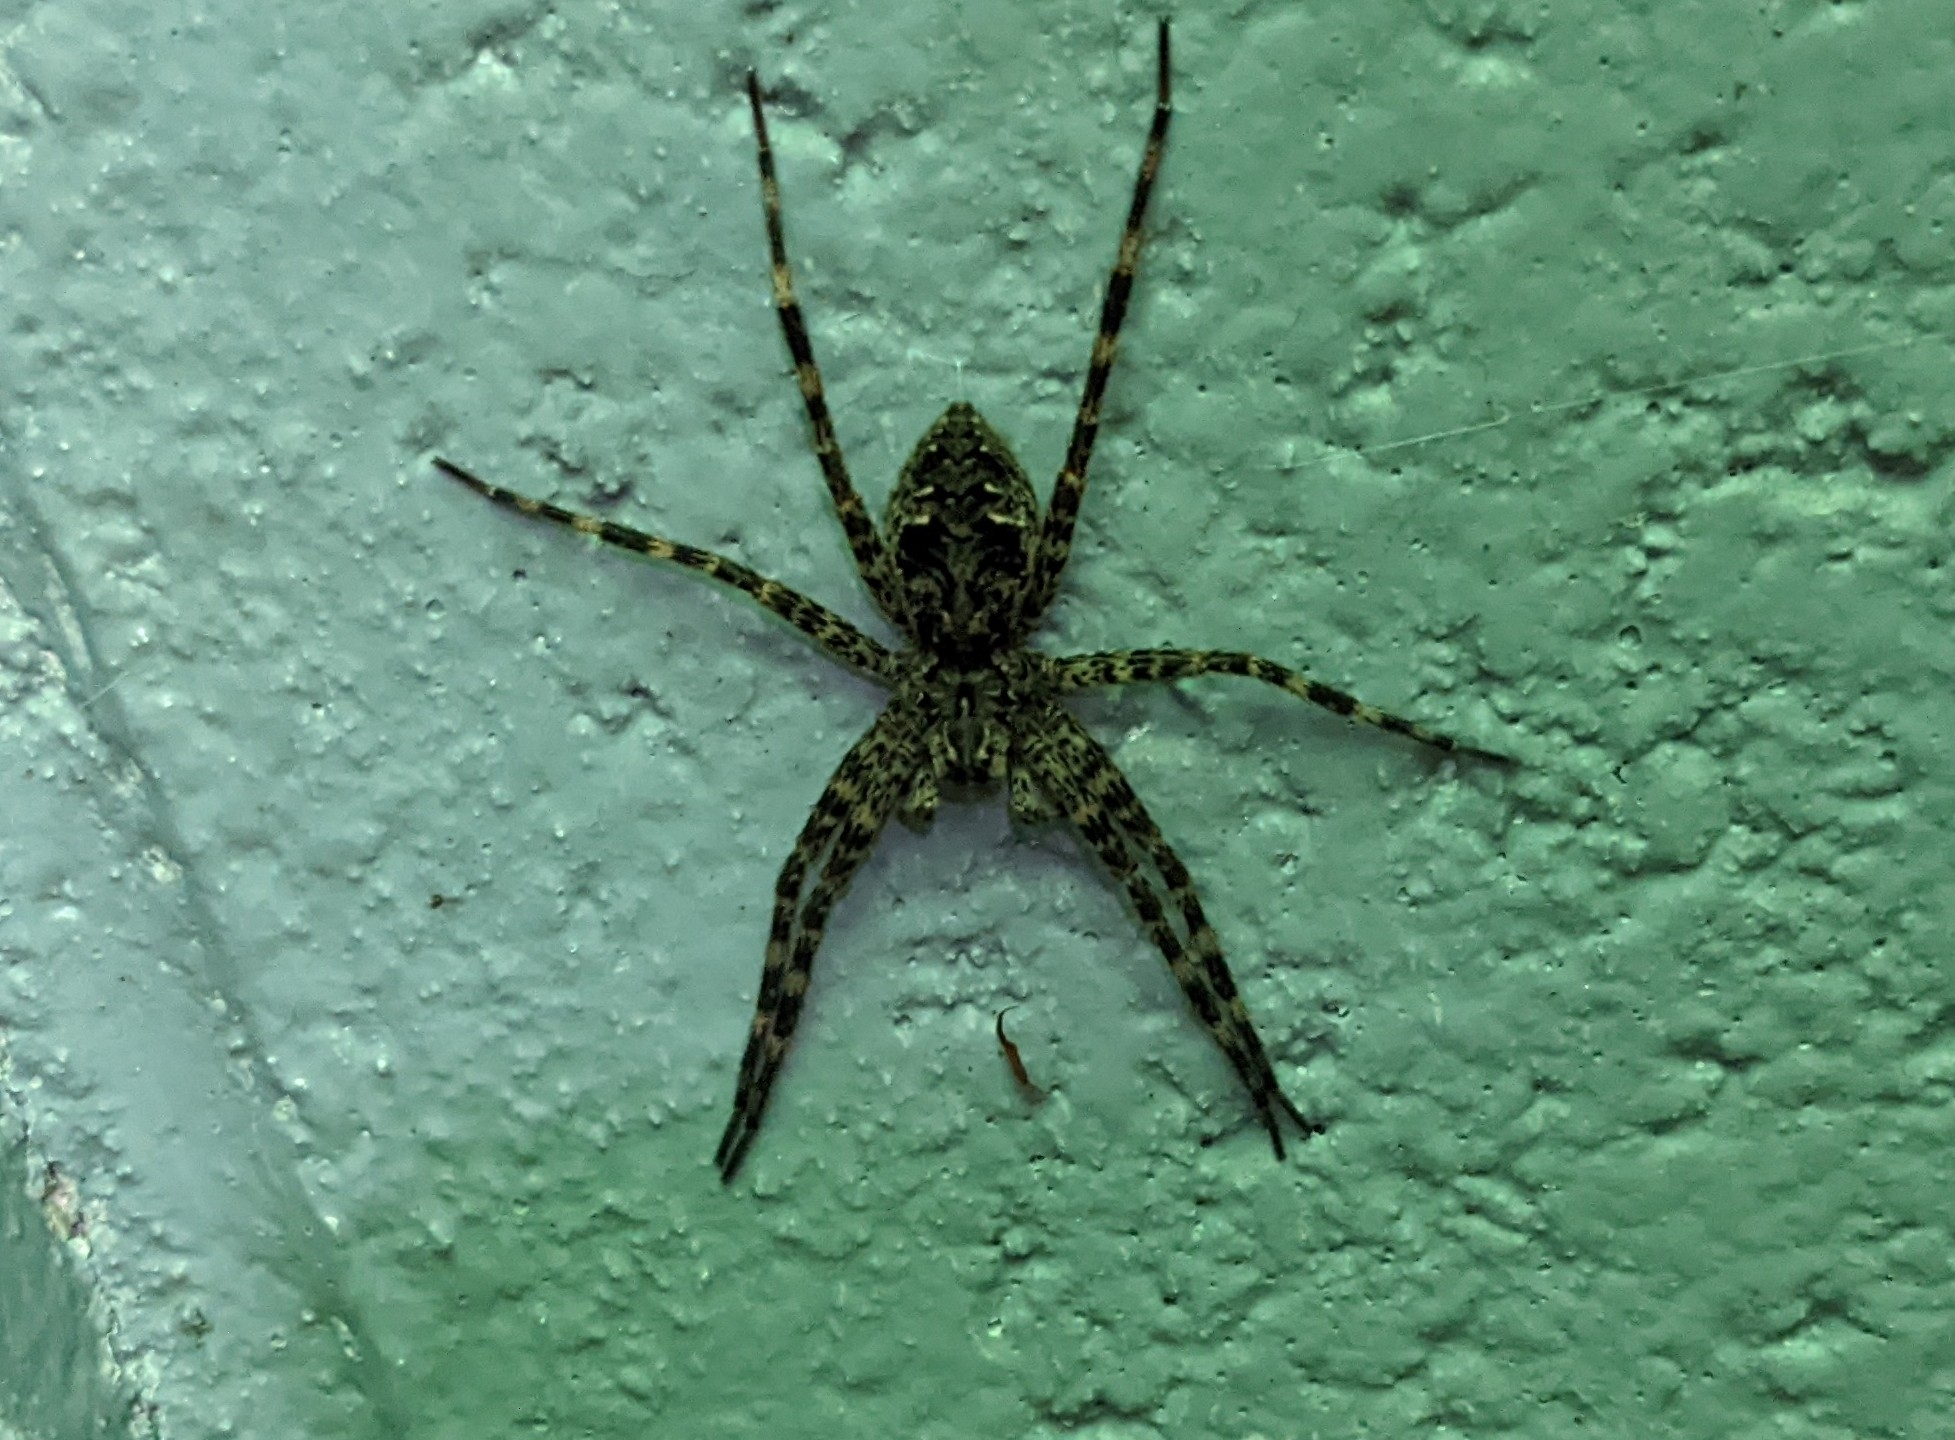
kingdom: Animalia
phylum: Arthropoda
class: Arachnida
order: Araneae
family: Pisauridae
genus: Dolomedes
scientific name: Dolomedes tenebrosus
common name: Dark fishing spider
